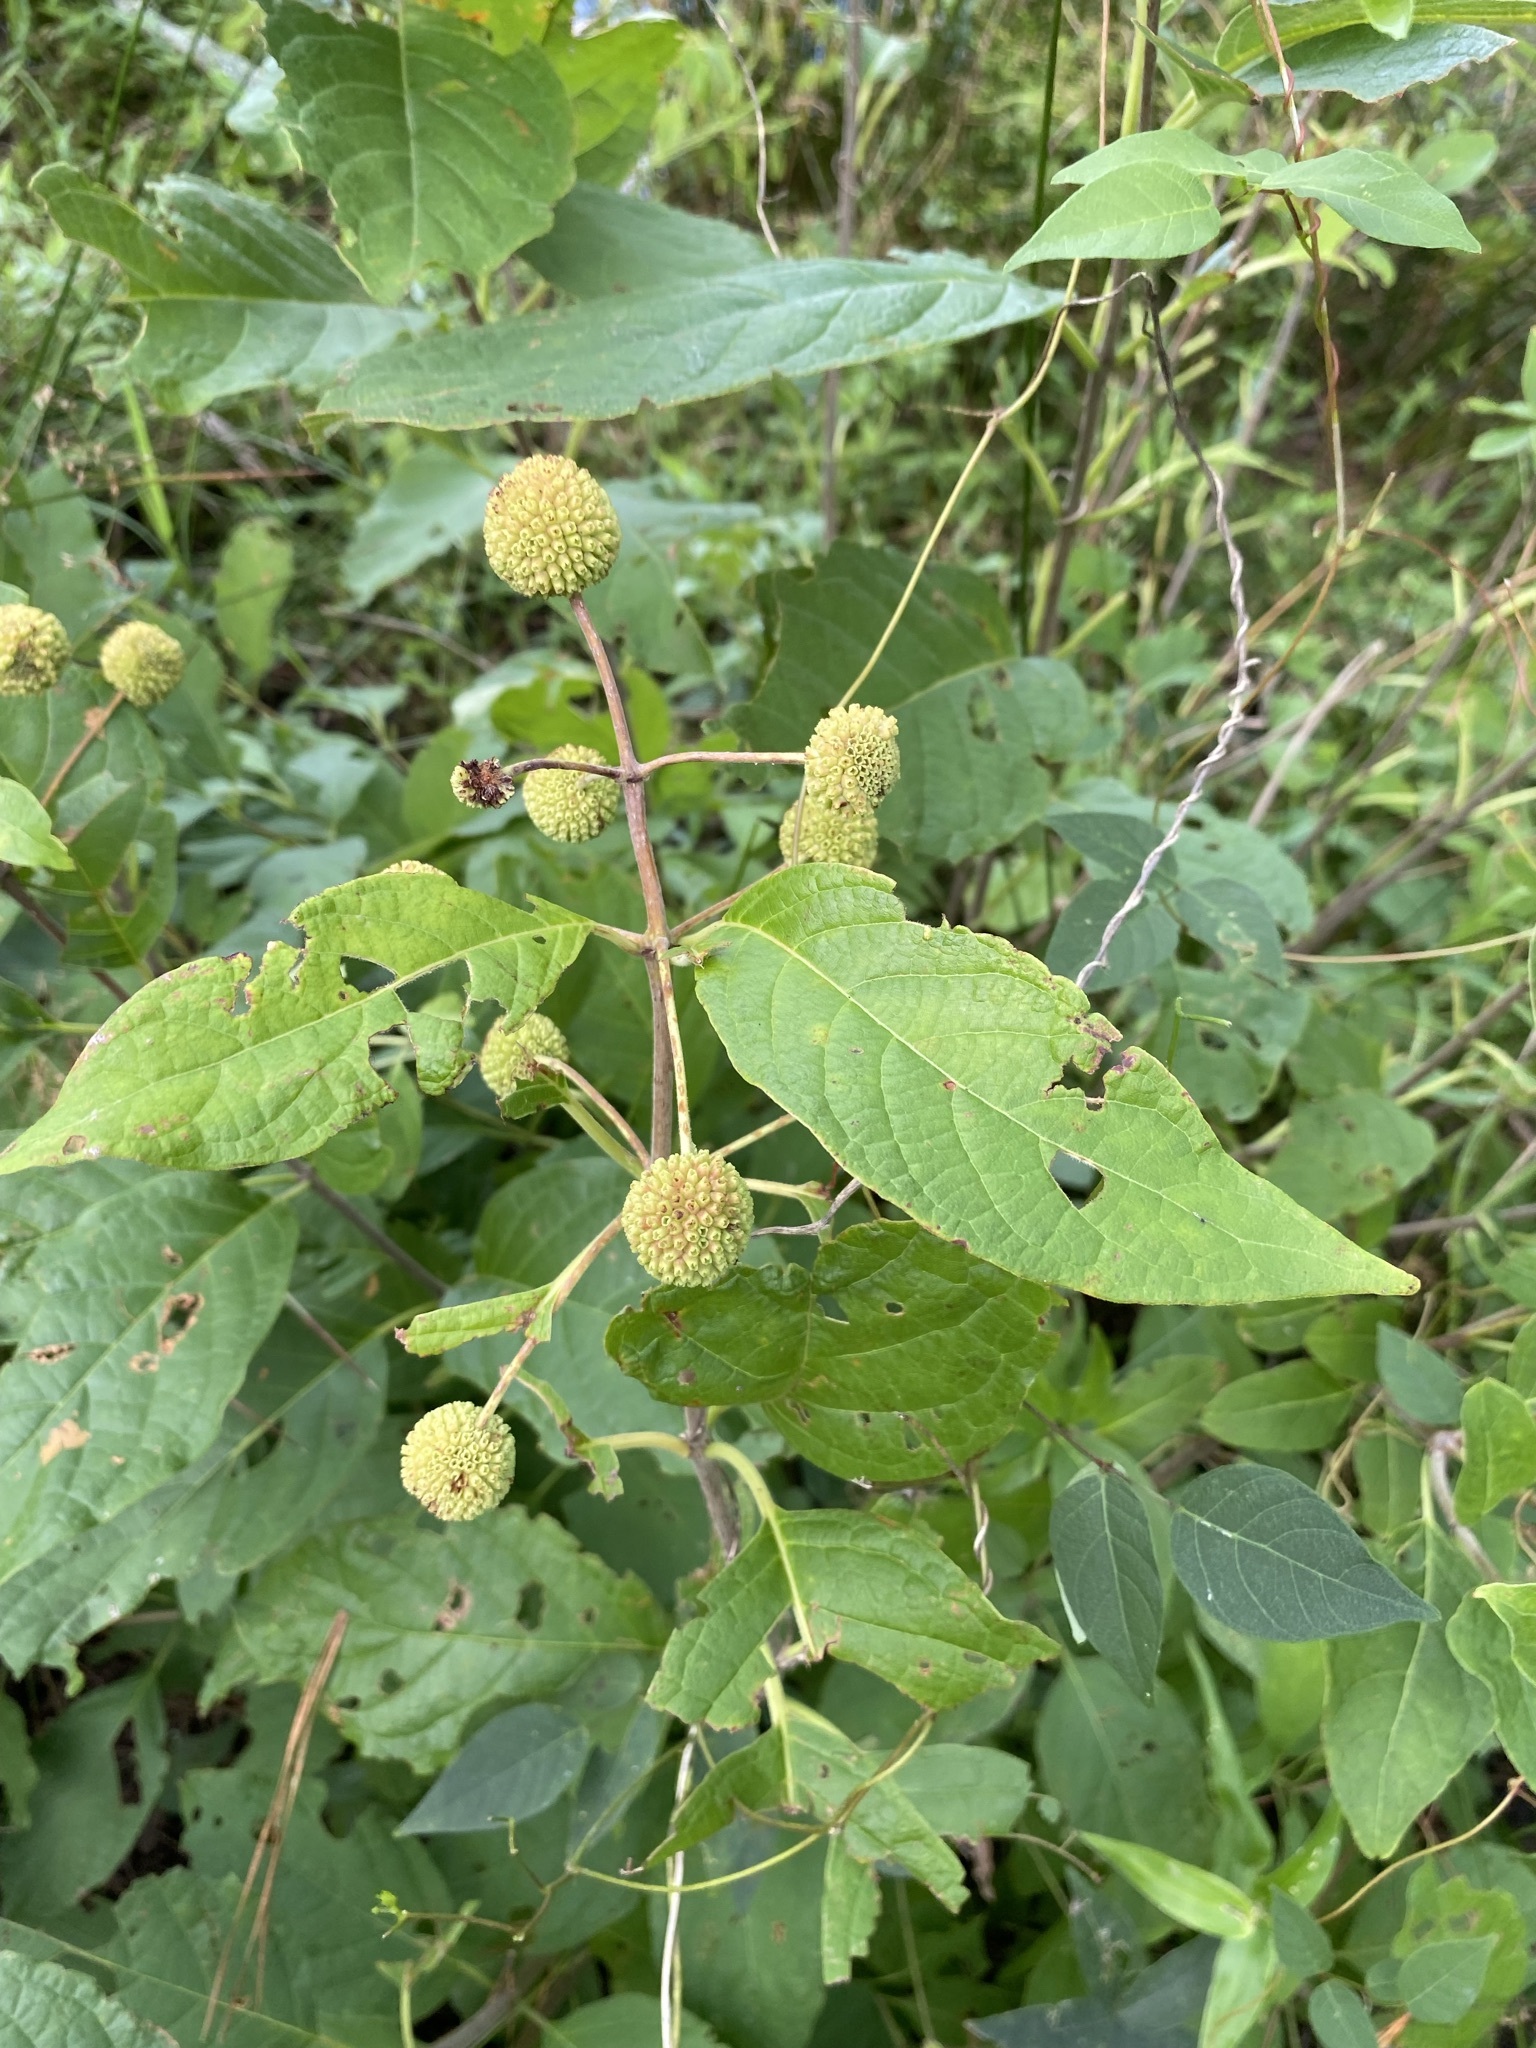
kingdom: Plantae
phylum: Tracheophyta
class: Magnoliopsida
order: Gentianales
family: Rubiaceae
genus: Cephalanthus
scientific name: Cephalanthus occidentalis
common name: Button-willow
